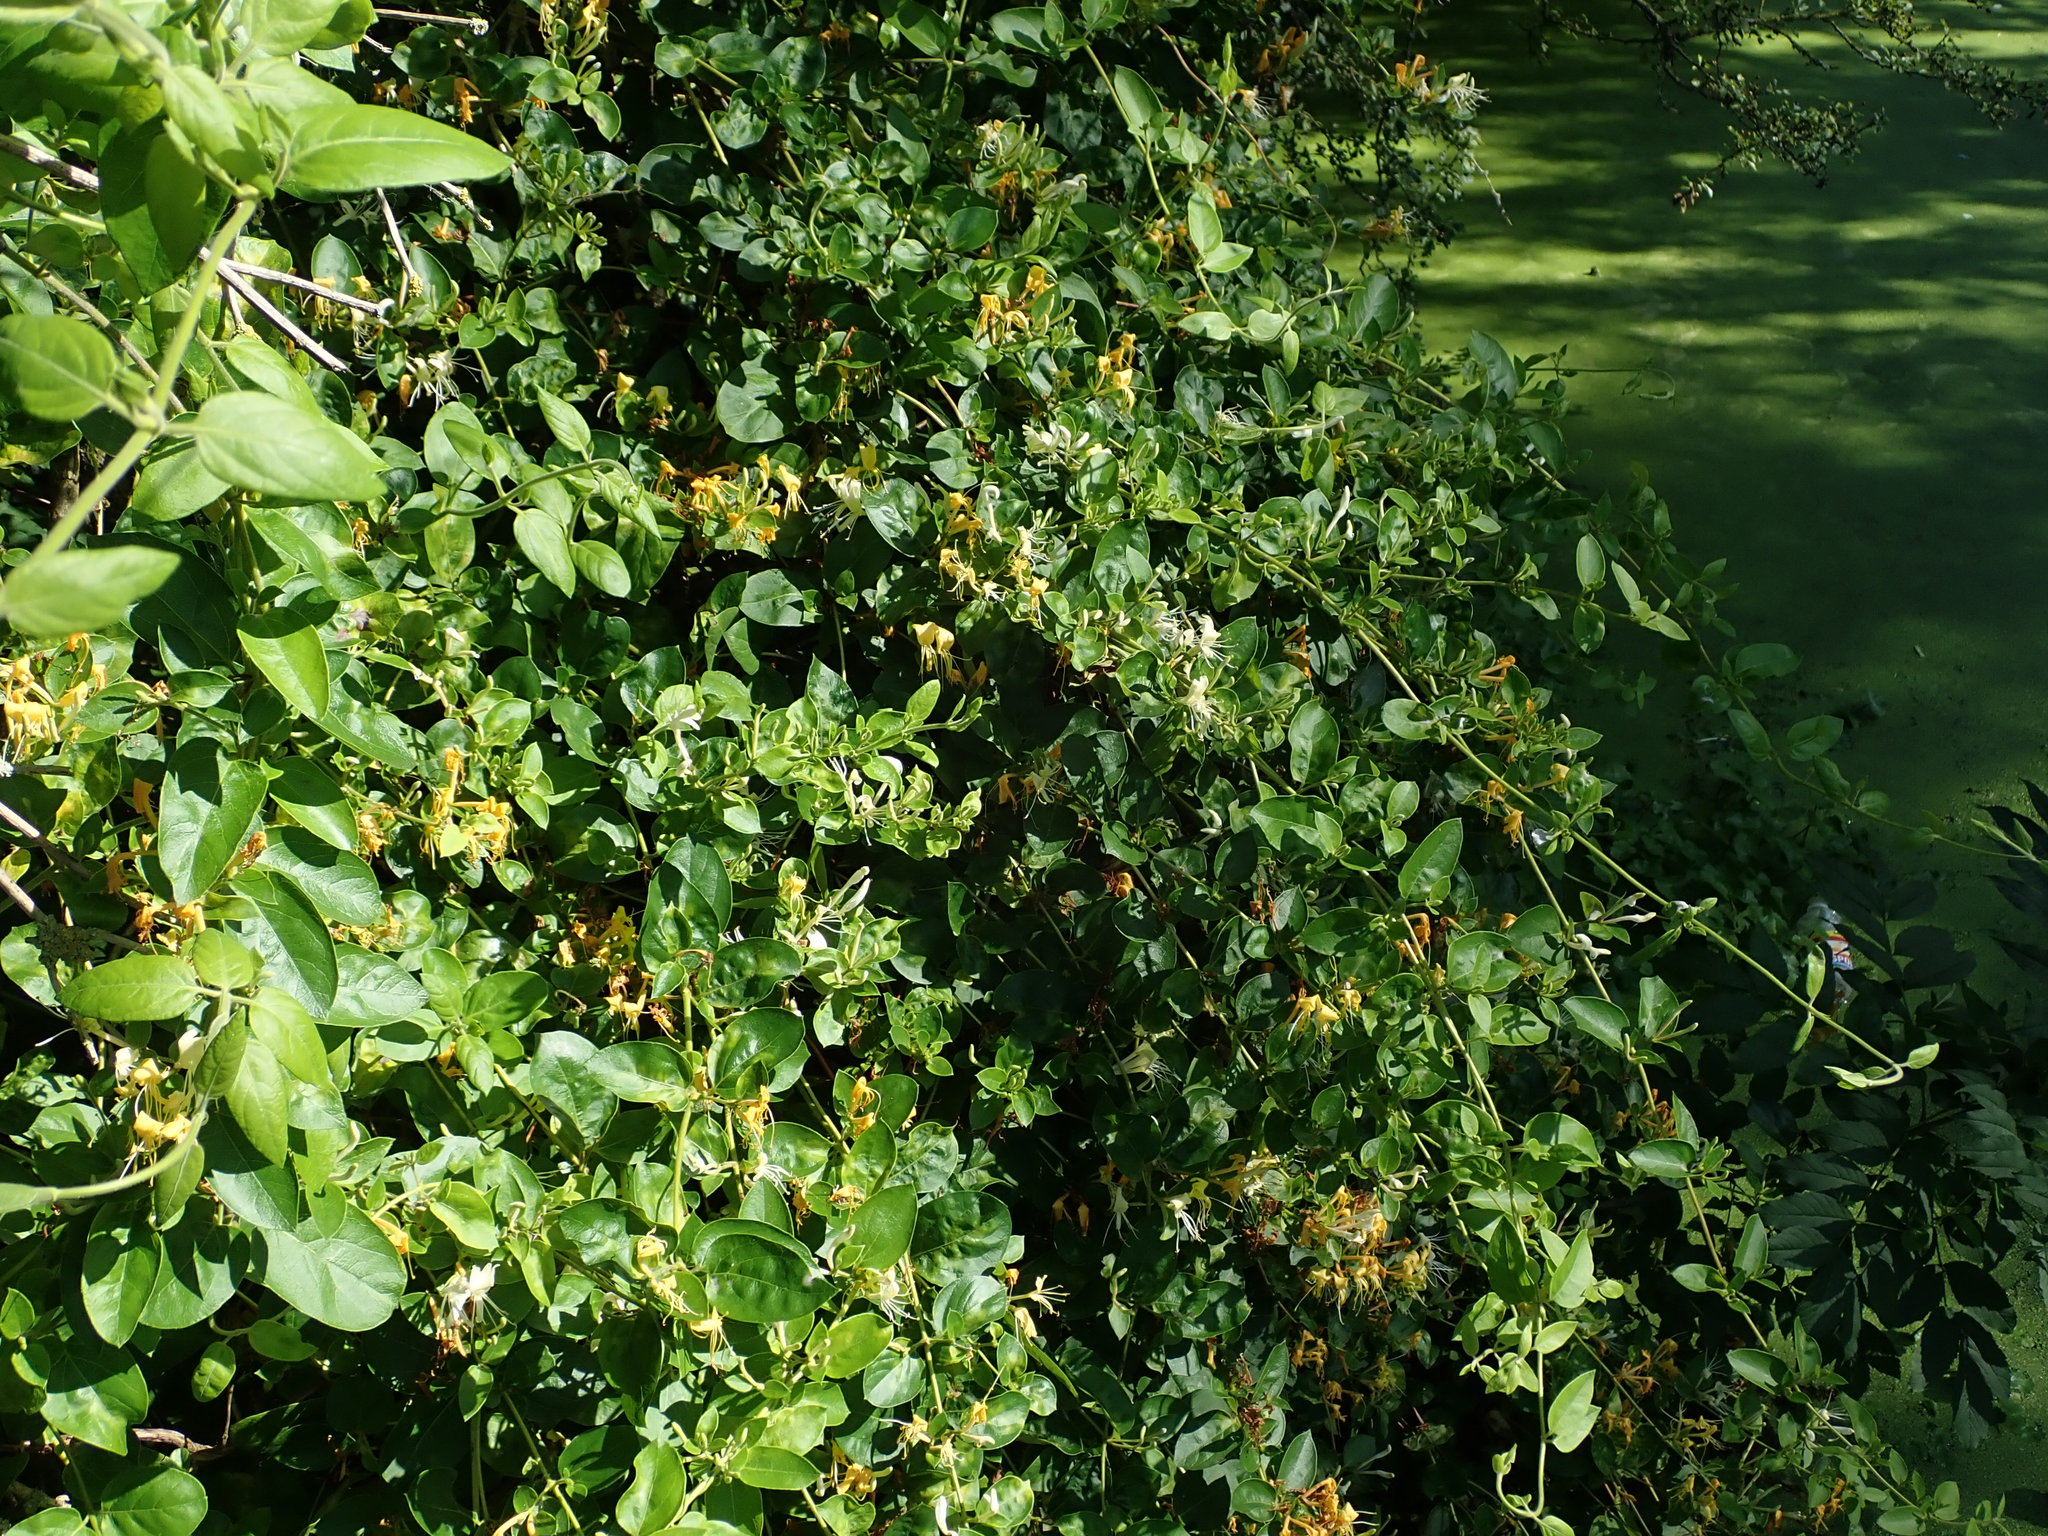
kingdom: Plantae
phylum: Tracheophyta
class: Magnoliopsida
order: Dipsacales
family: Caprifoliaceae
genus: Lonicera
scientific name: Lonicera japonica
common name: Japanese honeysuckle
